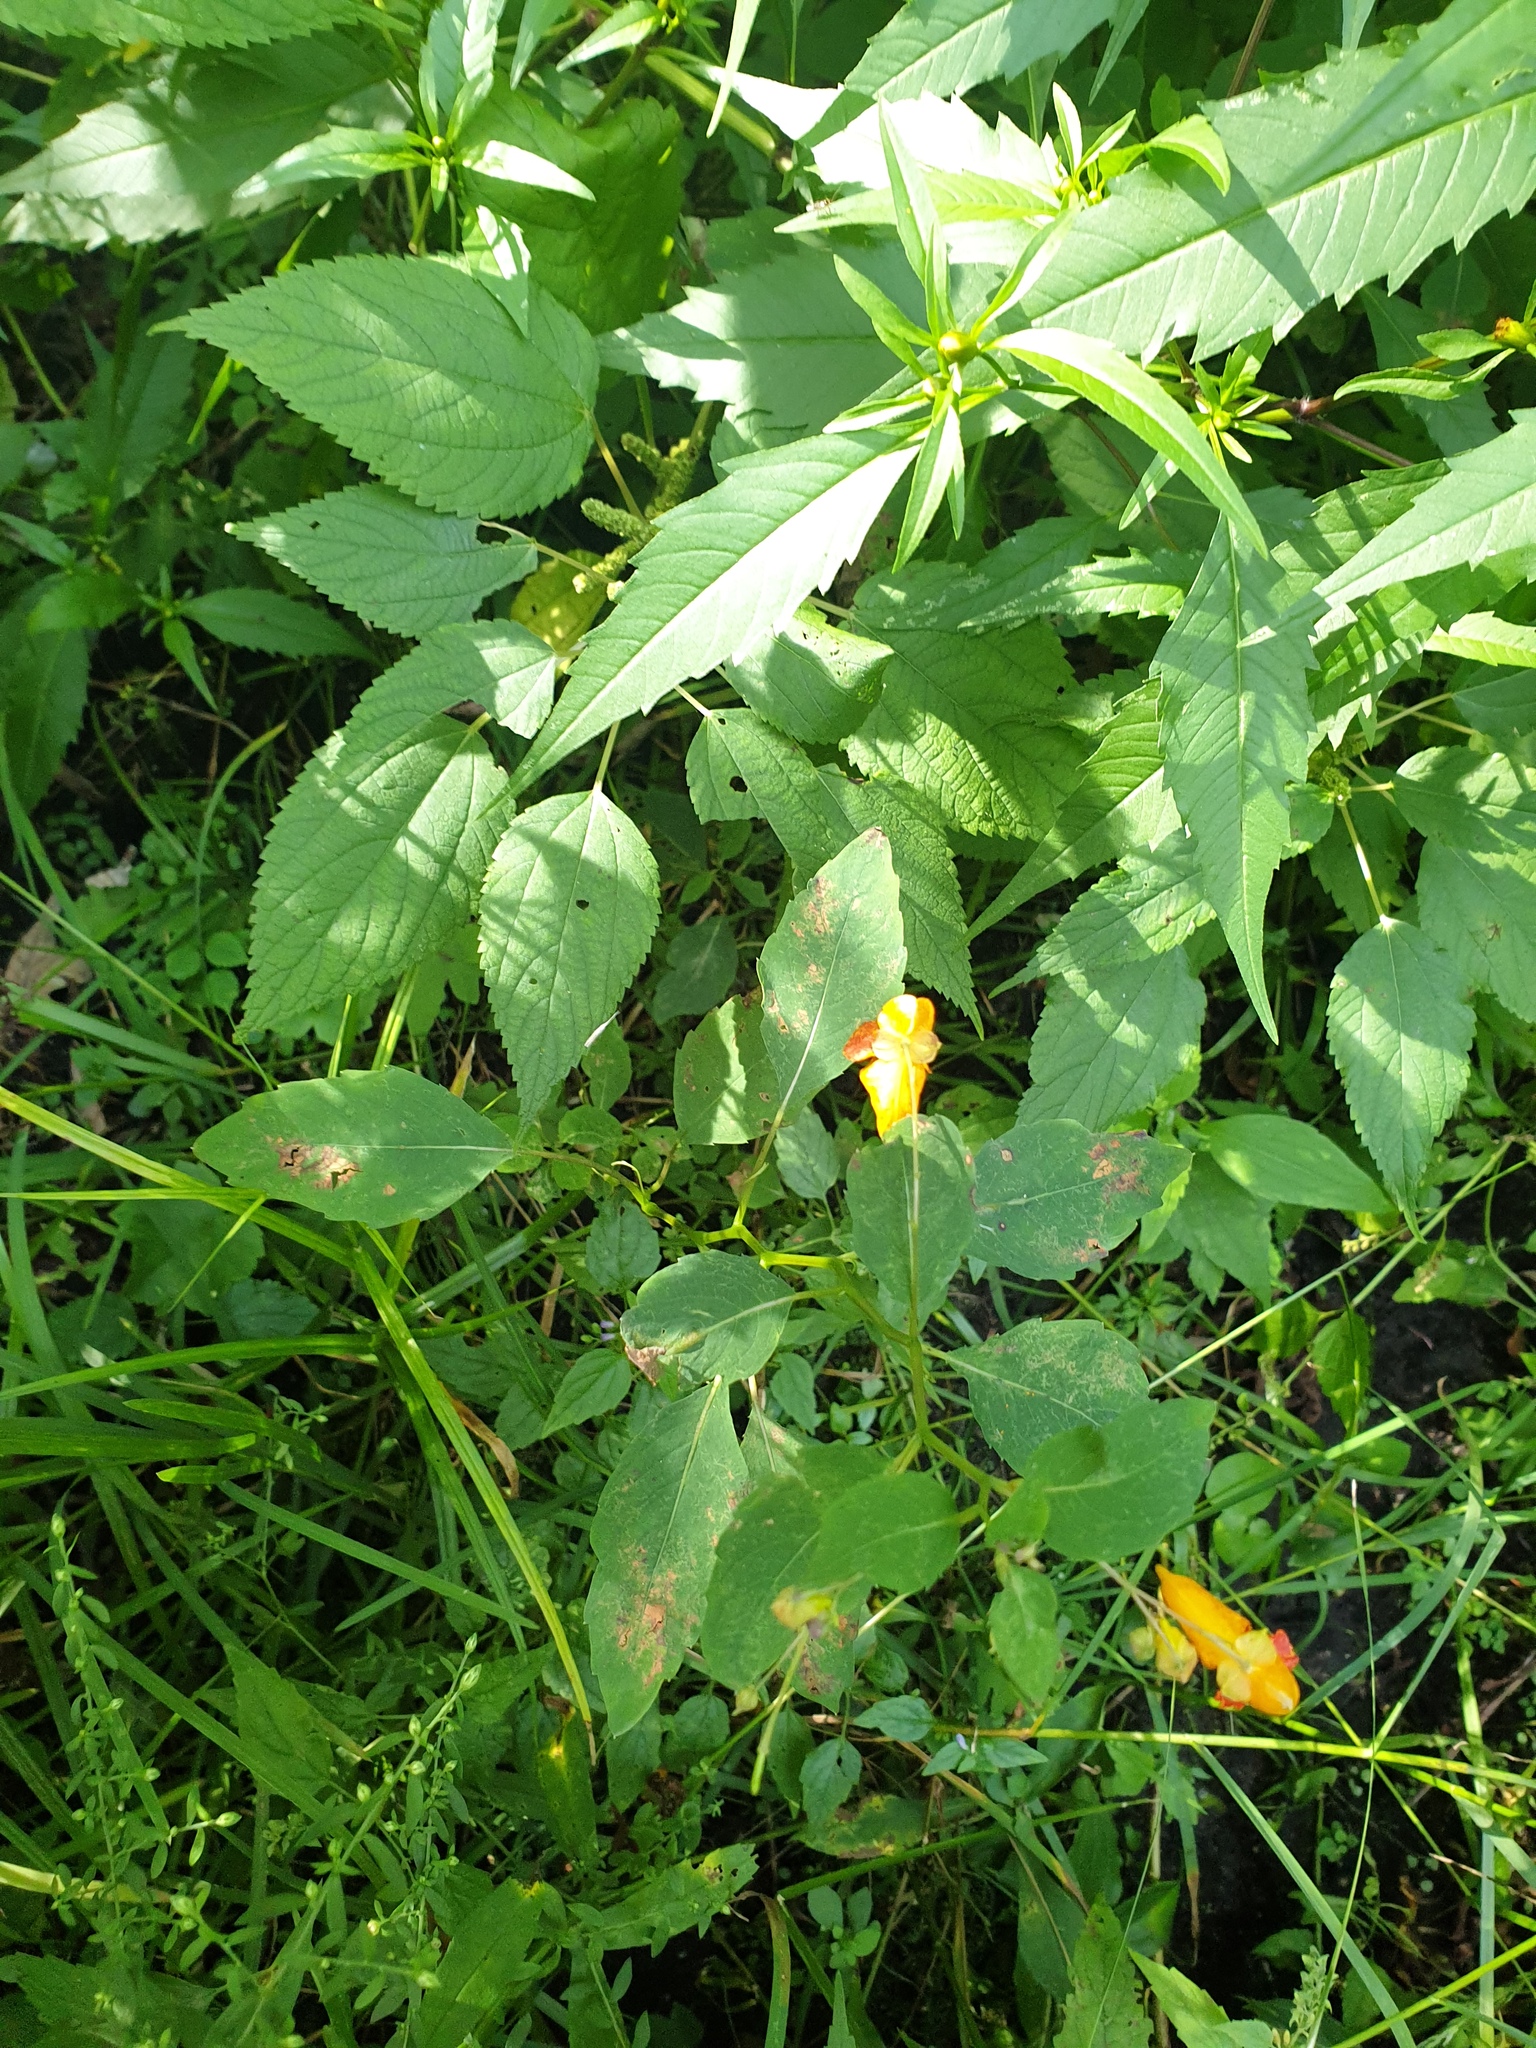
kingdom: Plantae
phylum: Tracheophyta
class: Magnoliopsida
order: Ericales
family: Balsaminaceae
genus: Impatiens
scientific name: Impatiens capensis
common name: Orange balsam
